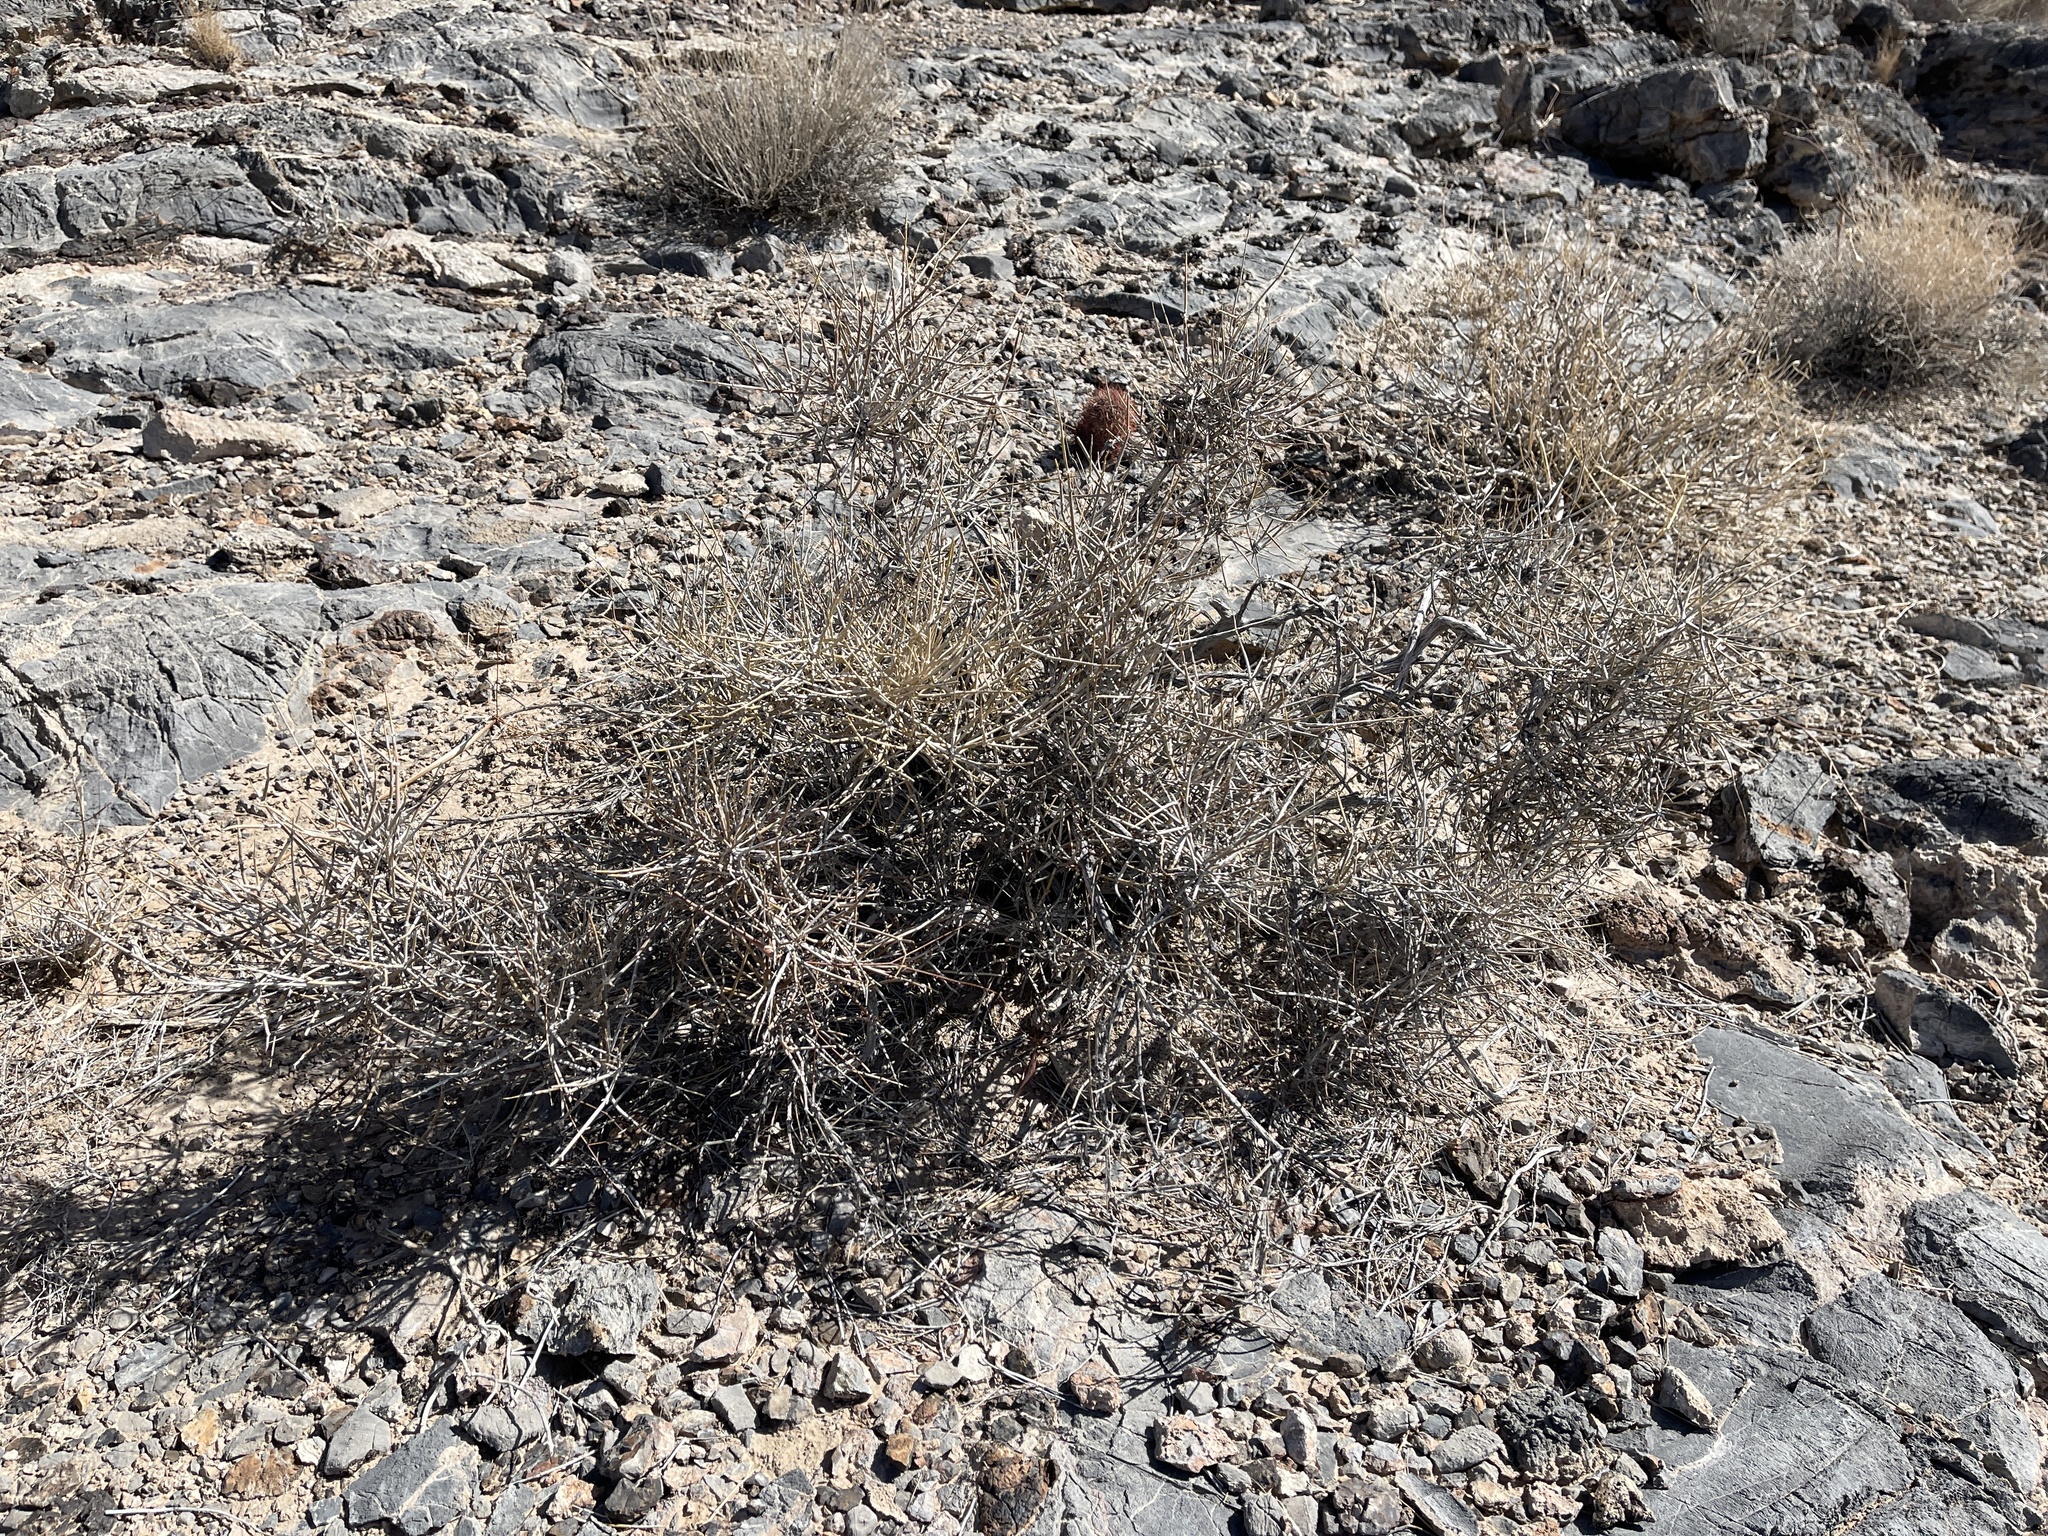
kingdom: Plantae
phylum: Tracheophyta
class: Gnetopsida
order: Ephedrales
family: Ephedraceae
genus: Ephedra
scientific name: Ephedra nevadensis
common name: Gray ephedra
